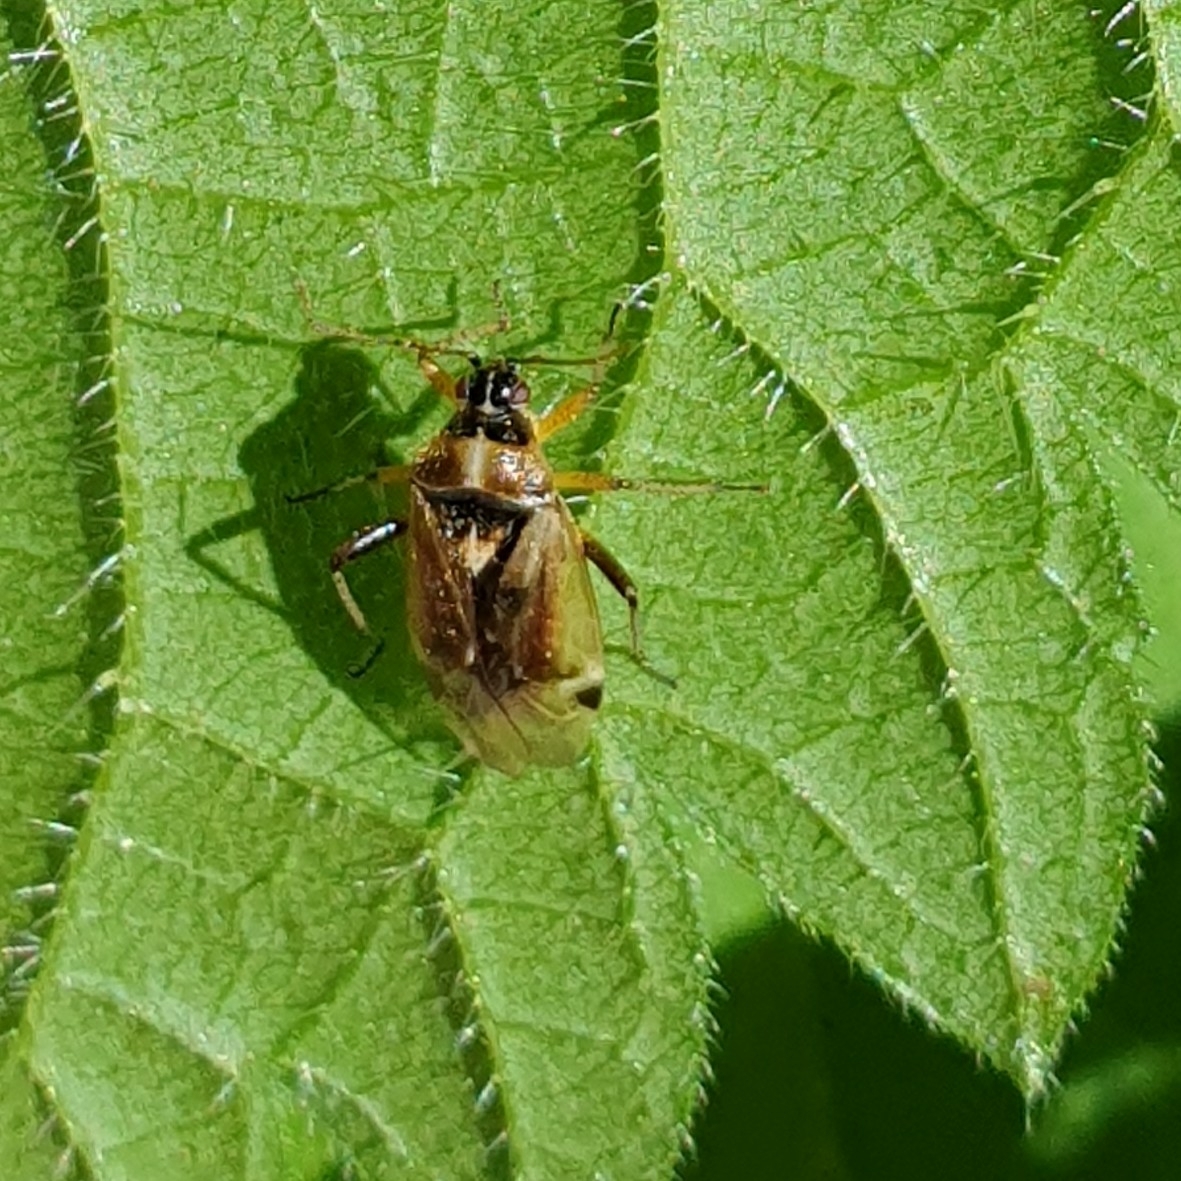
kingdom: Animalia
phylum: Arthropoda
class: Insecta
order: Hemiptera
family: Miridae
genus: Harpocera
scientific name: Harpocera thoracica
